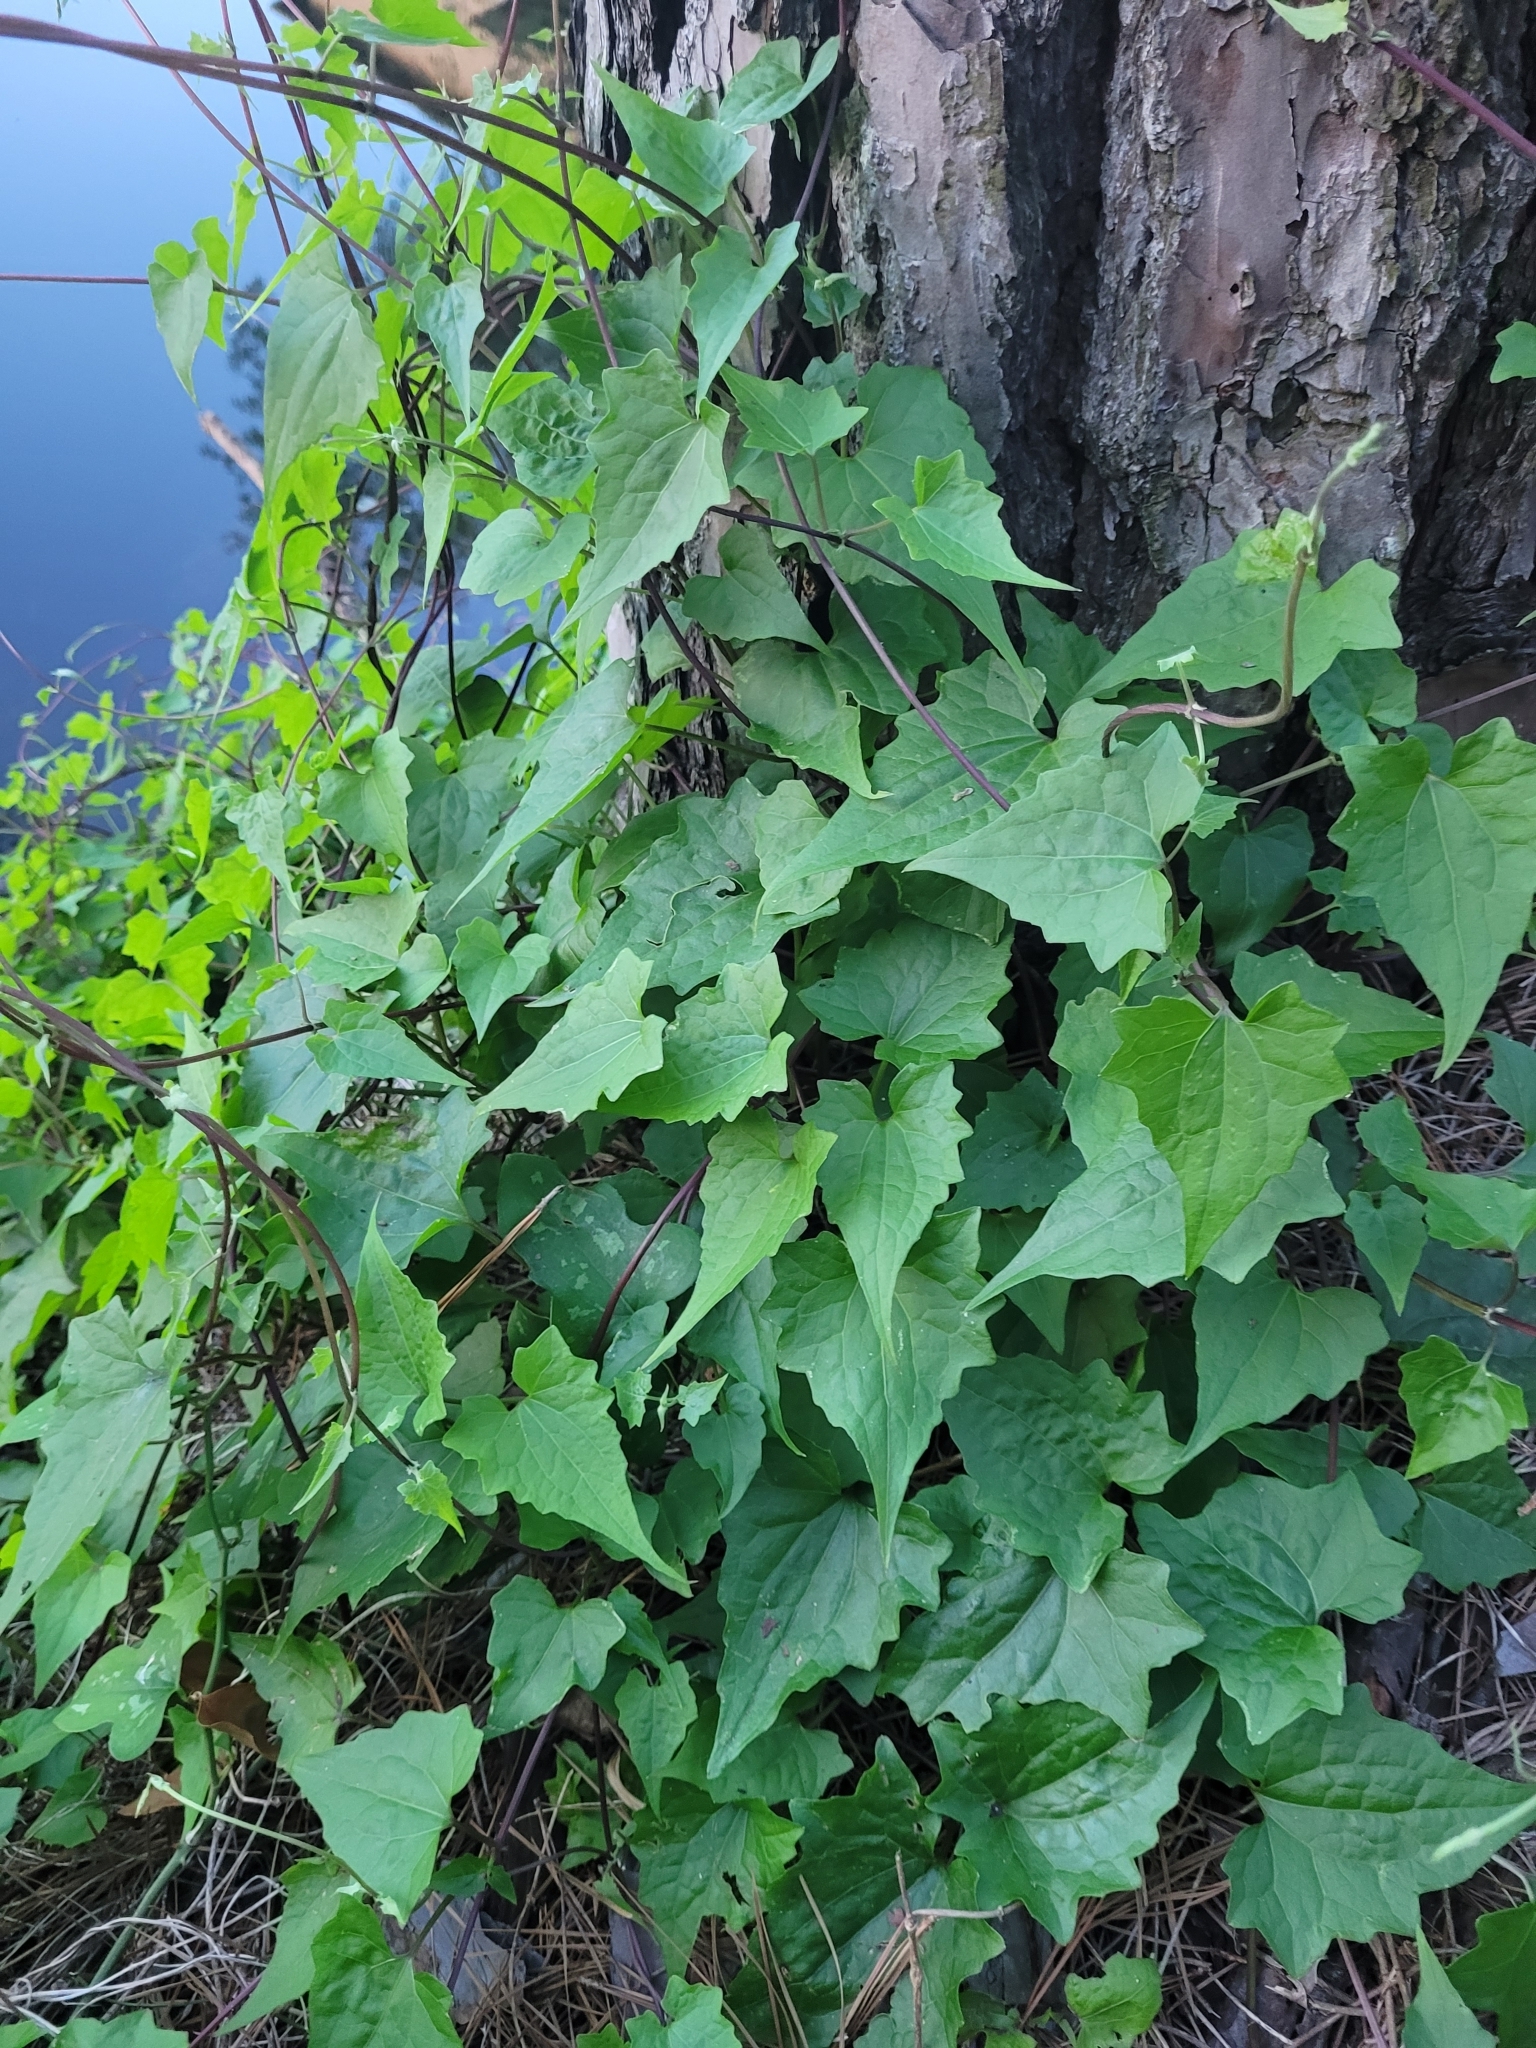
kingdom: Plantae
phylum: Tracheophyta
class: Magnoliopsida
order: Asterales
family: Asteraceae
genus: Mikania
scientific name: Mikania scandens
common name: Climbing hempvine
